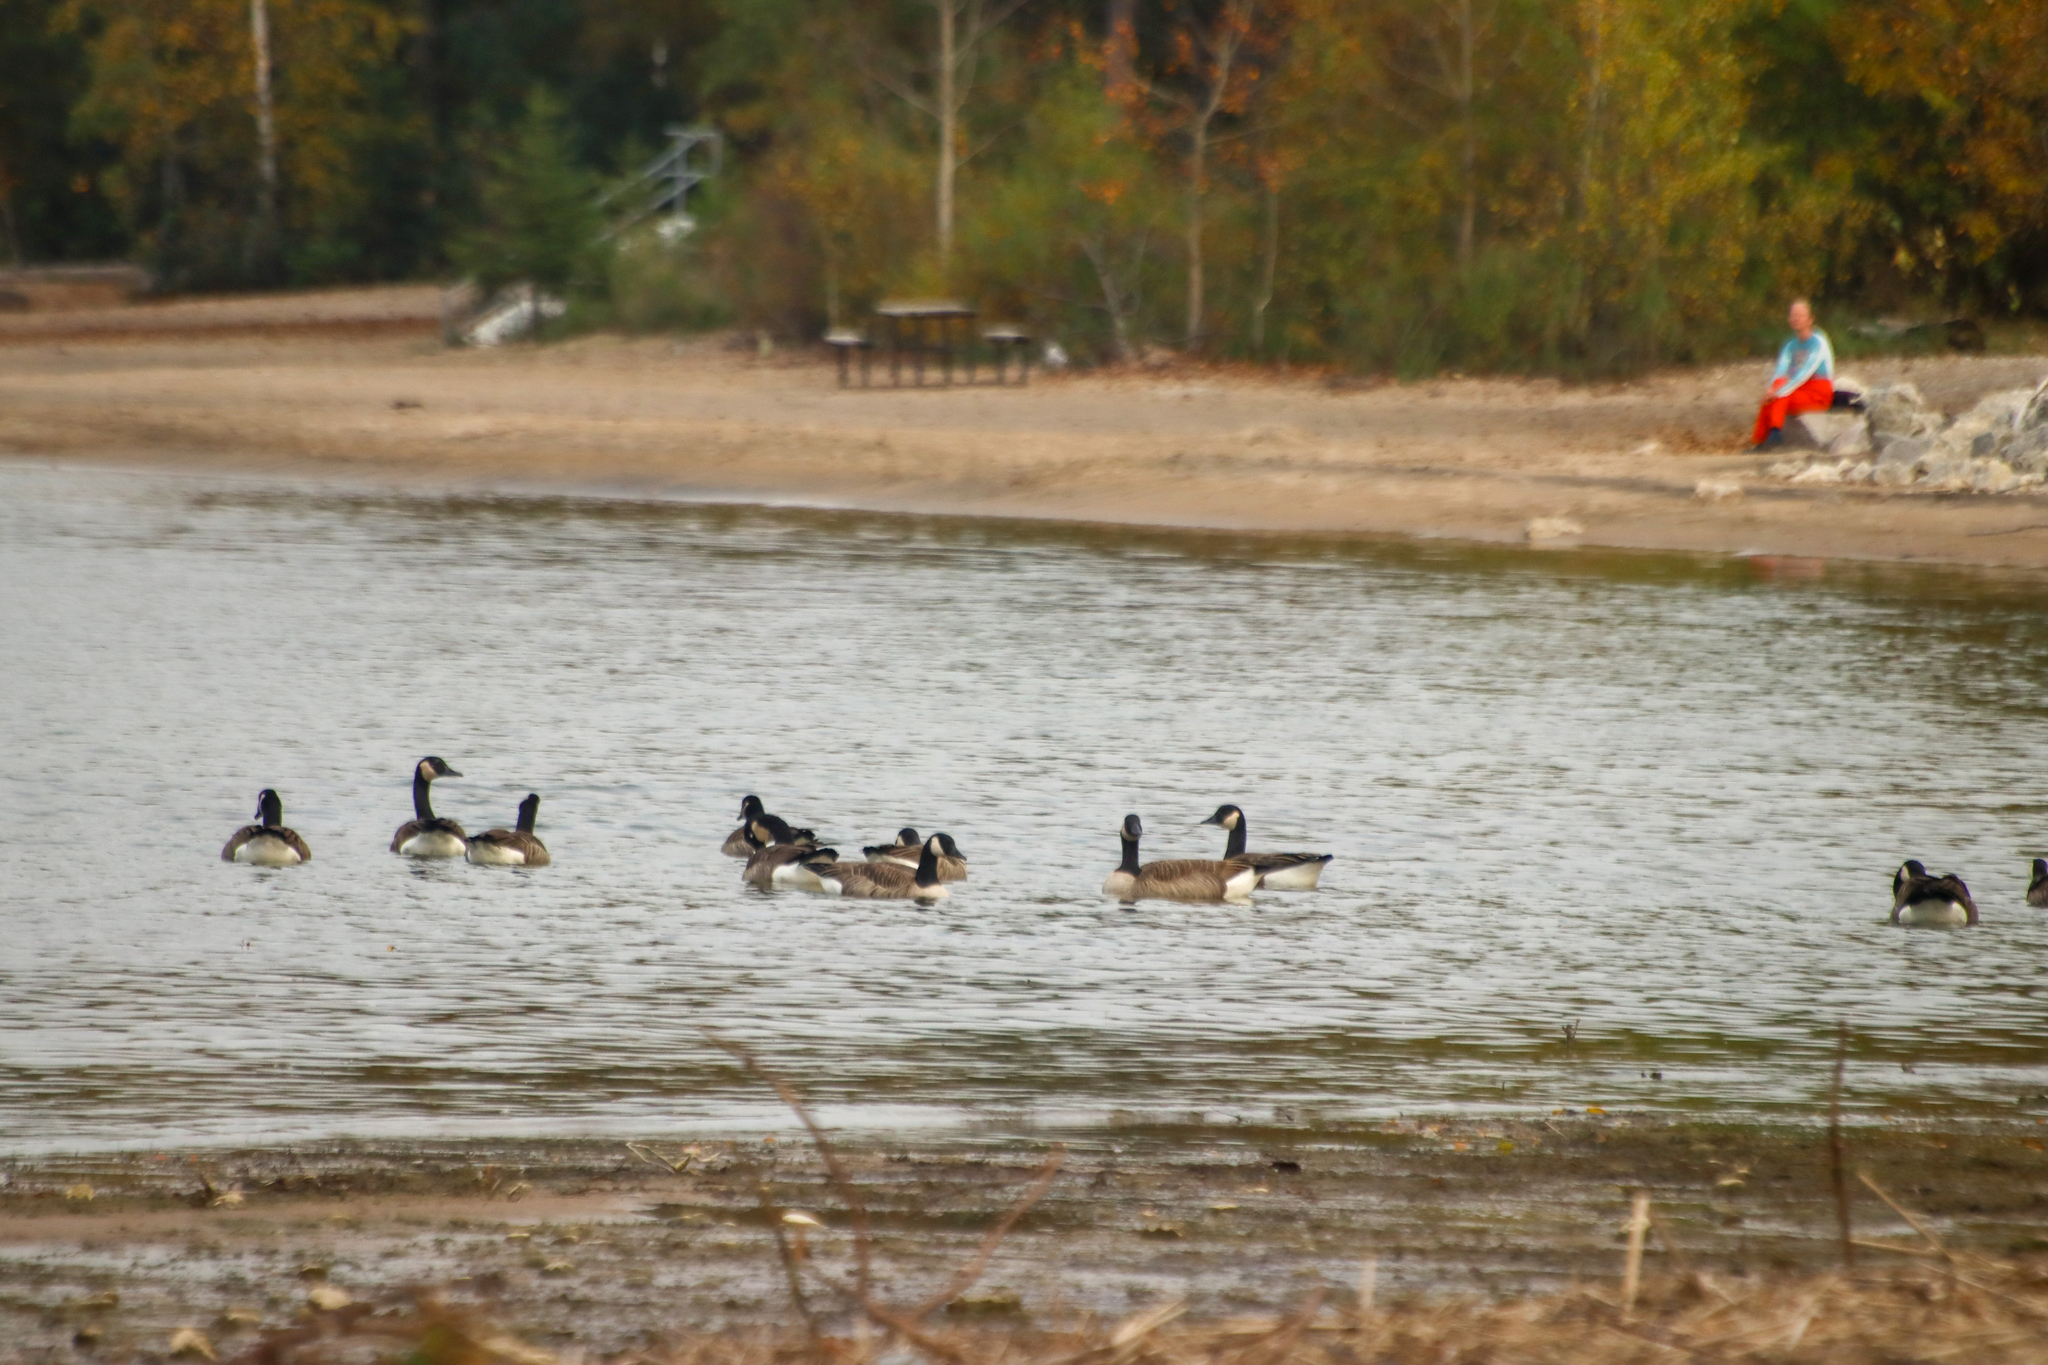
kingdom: Animalia
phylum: Chordata
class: Aves
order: Anseriformes
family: Anatidae
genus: Branta
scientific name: Branta canadensis
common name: Canada goose
